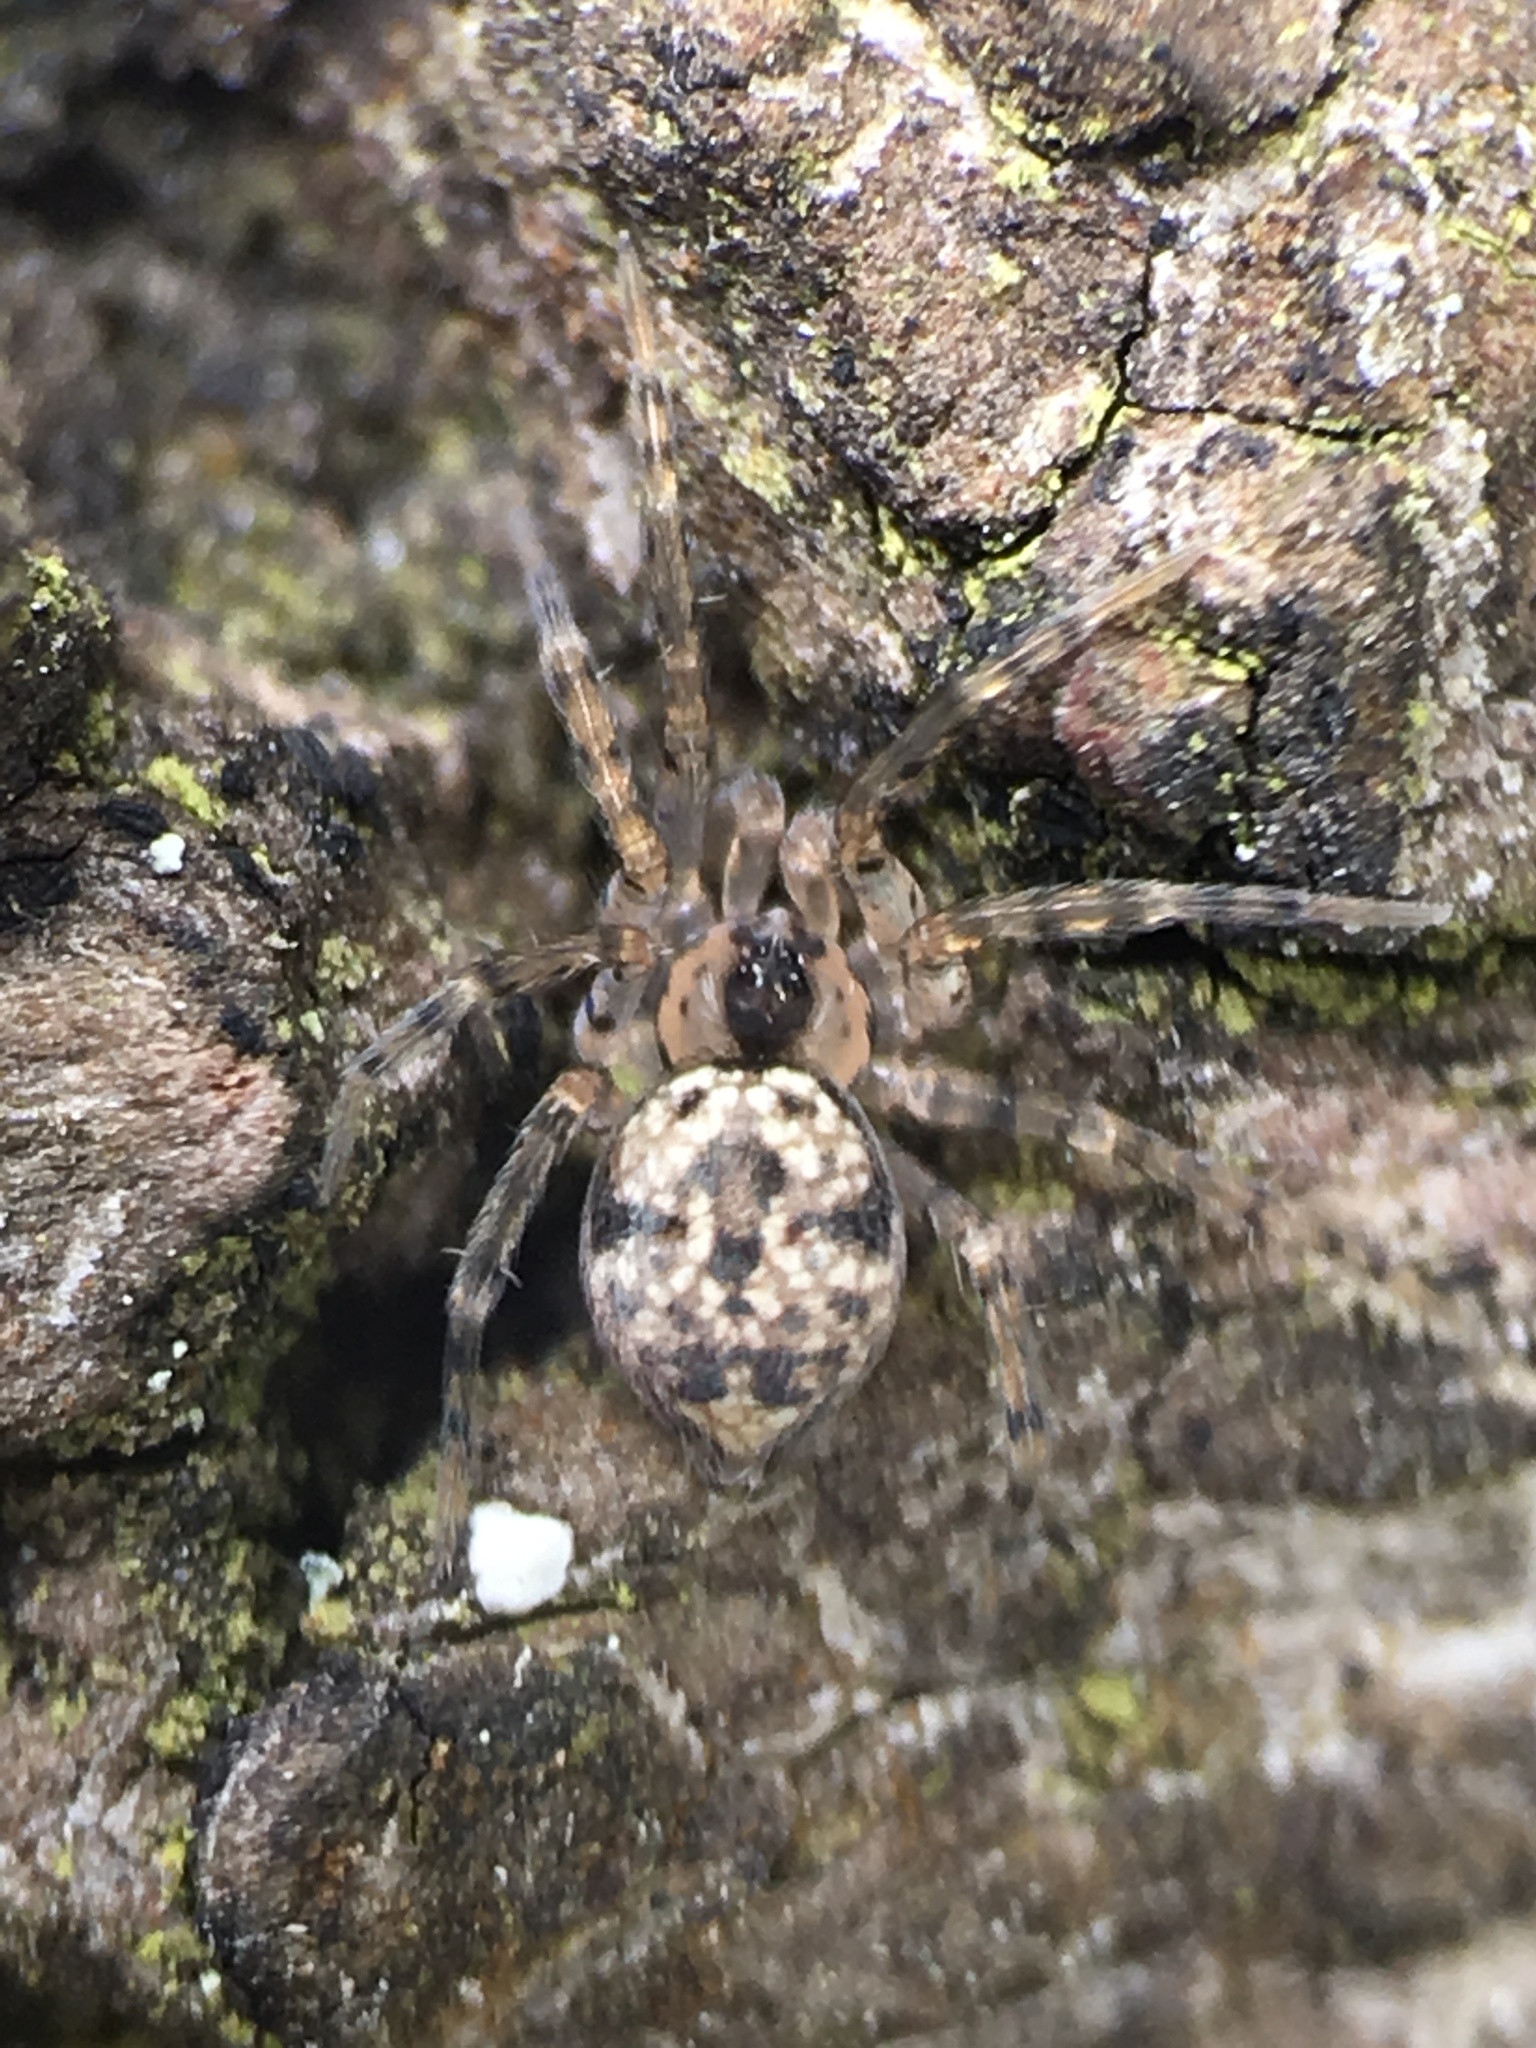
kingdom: Animalia
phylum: Arthropoda
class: Arachnida
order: Araneae
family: Oecobiidae
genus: Oecobius
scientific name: Oecobius navus
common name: Flatmesh weaver
